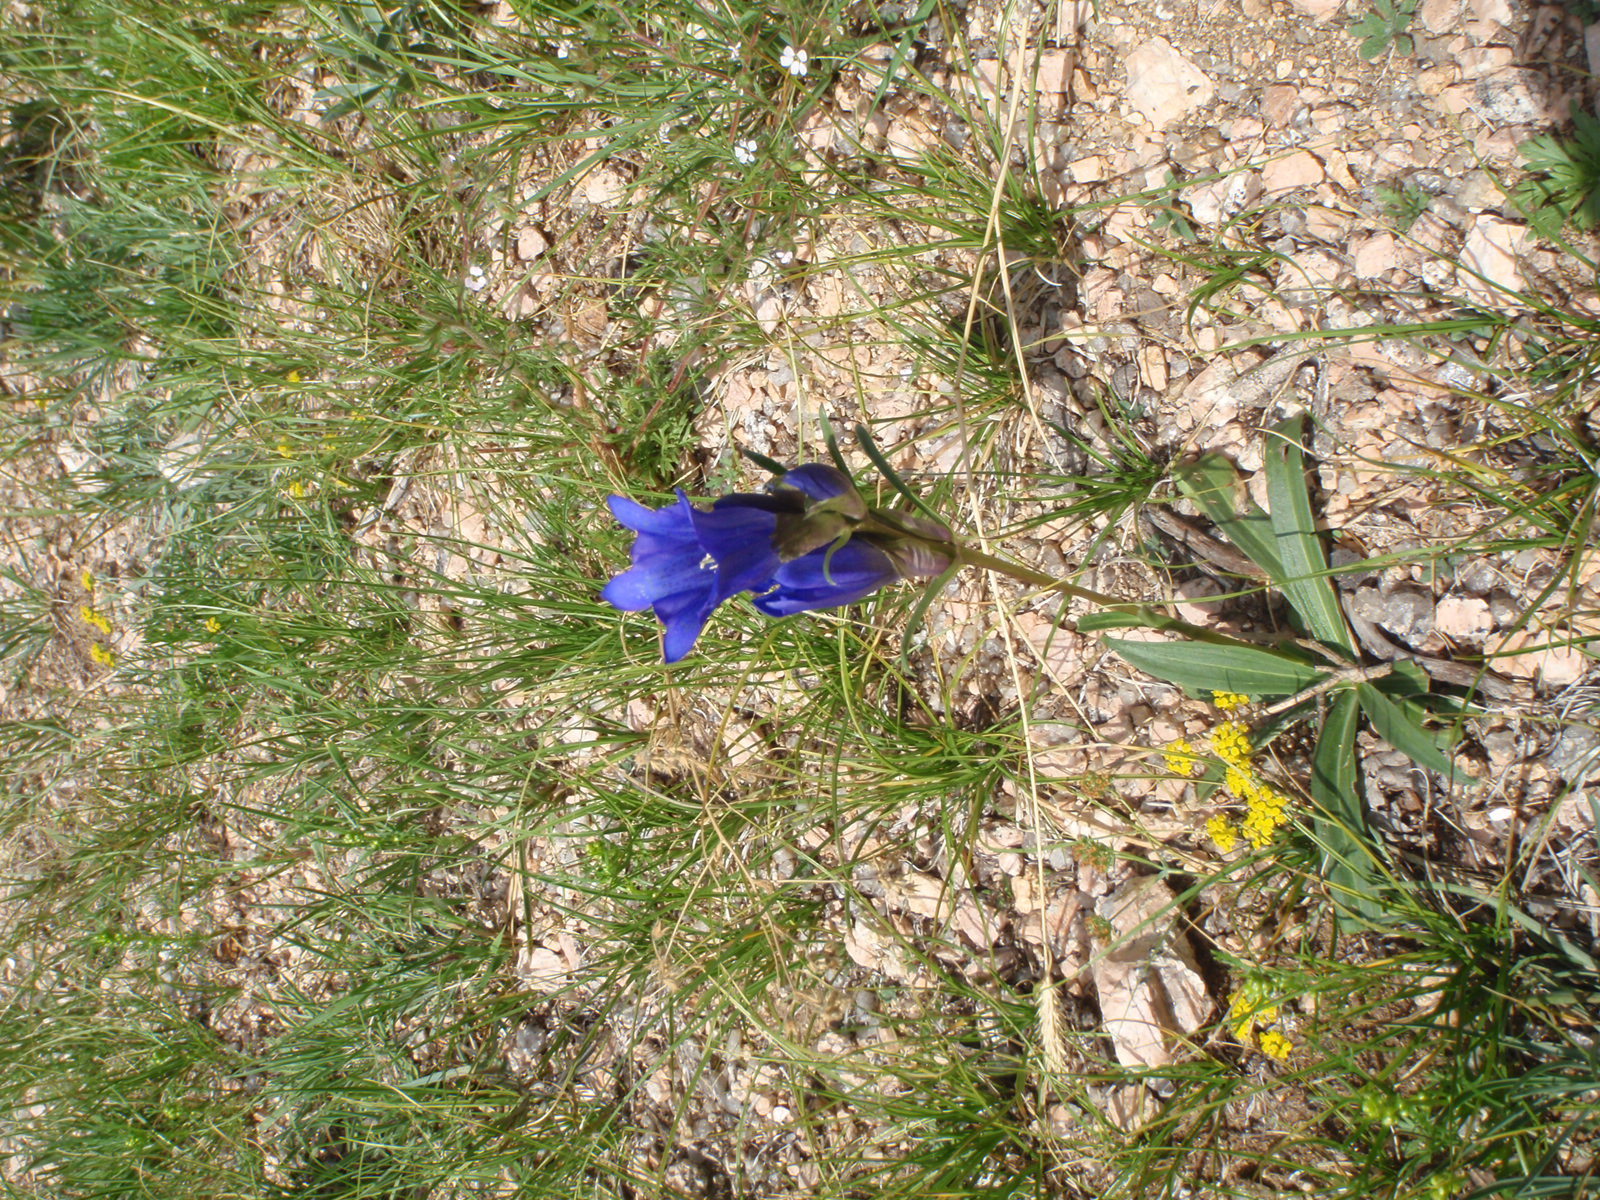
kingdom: Plantae
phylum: Tracheophyta
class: Magnoliopsida
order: Gentianales
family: Gentianaceae
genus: Gentiana
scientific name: Gentiana decumbens
